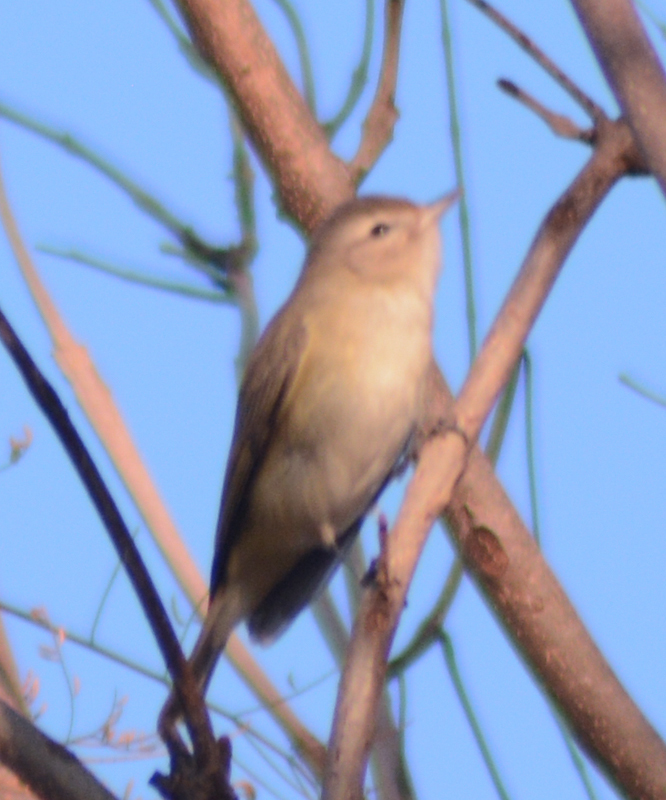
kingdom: Animalia
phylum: Chordata
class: Aves
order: Passeriformes
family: Vireonidae
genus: Vireo
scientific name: Vireo gilvus
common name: Warbling vireo
